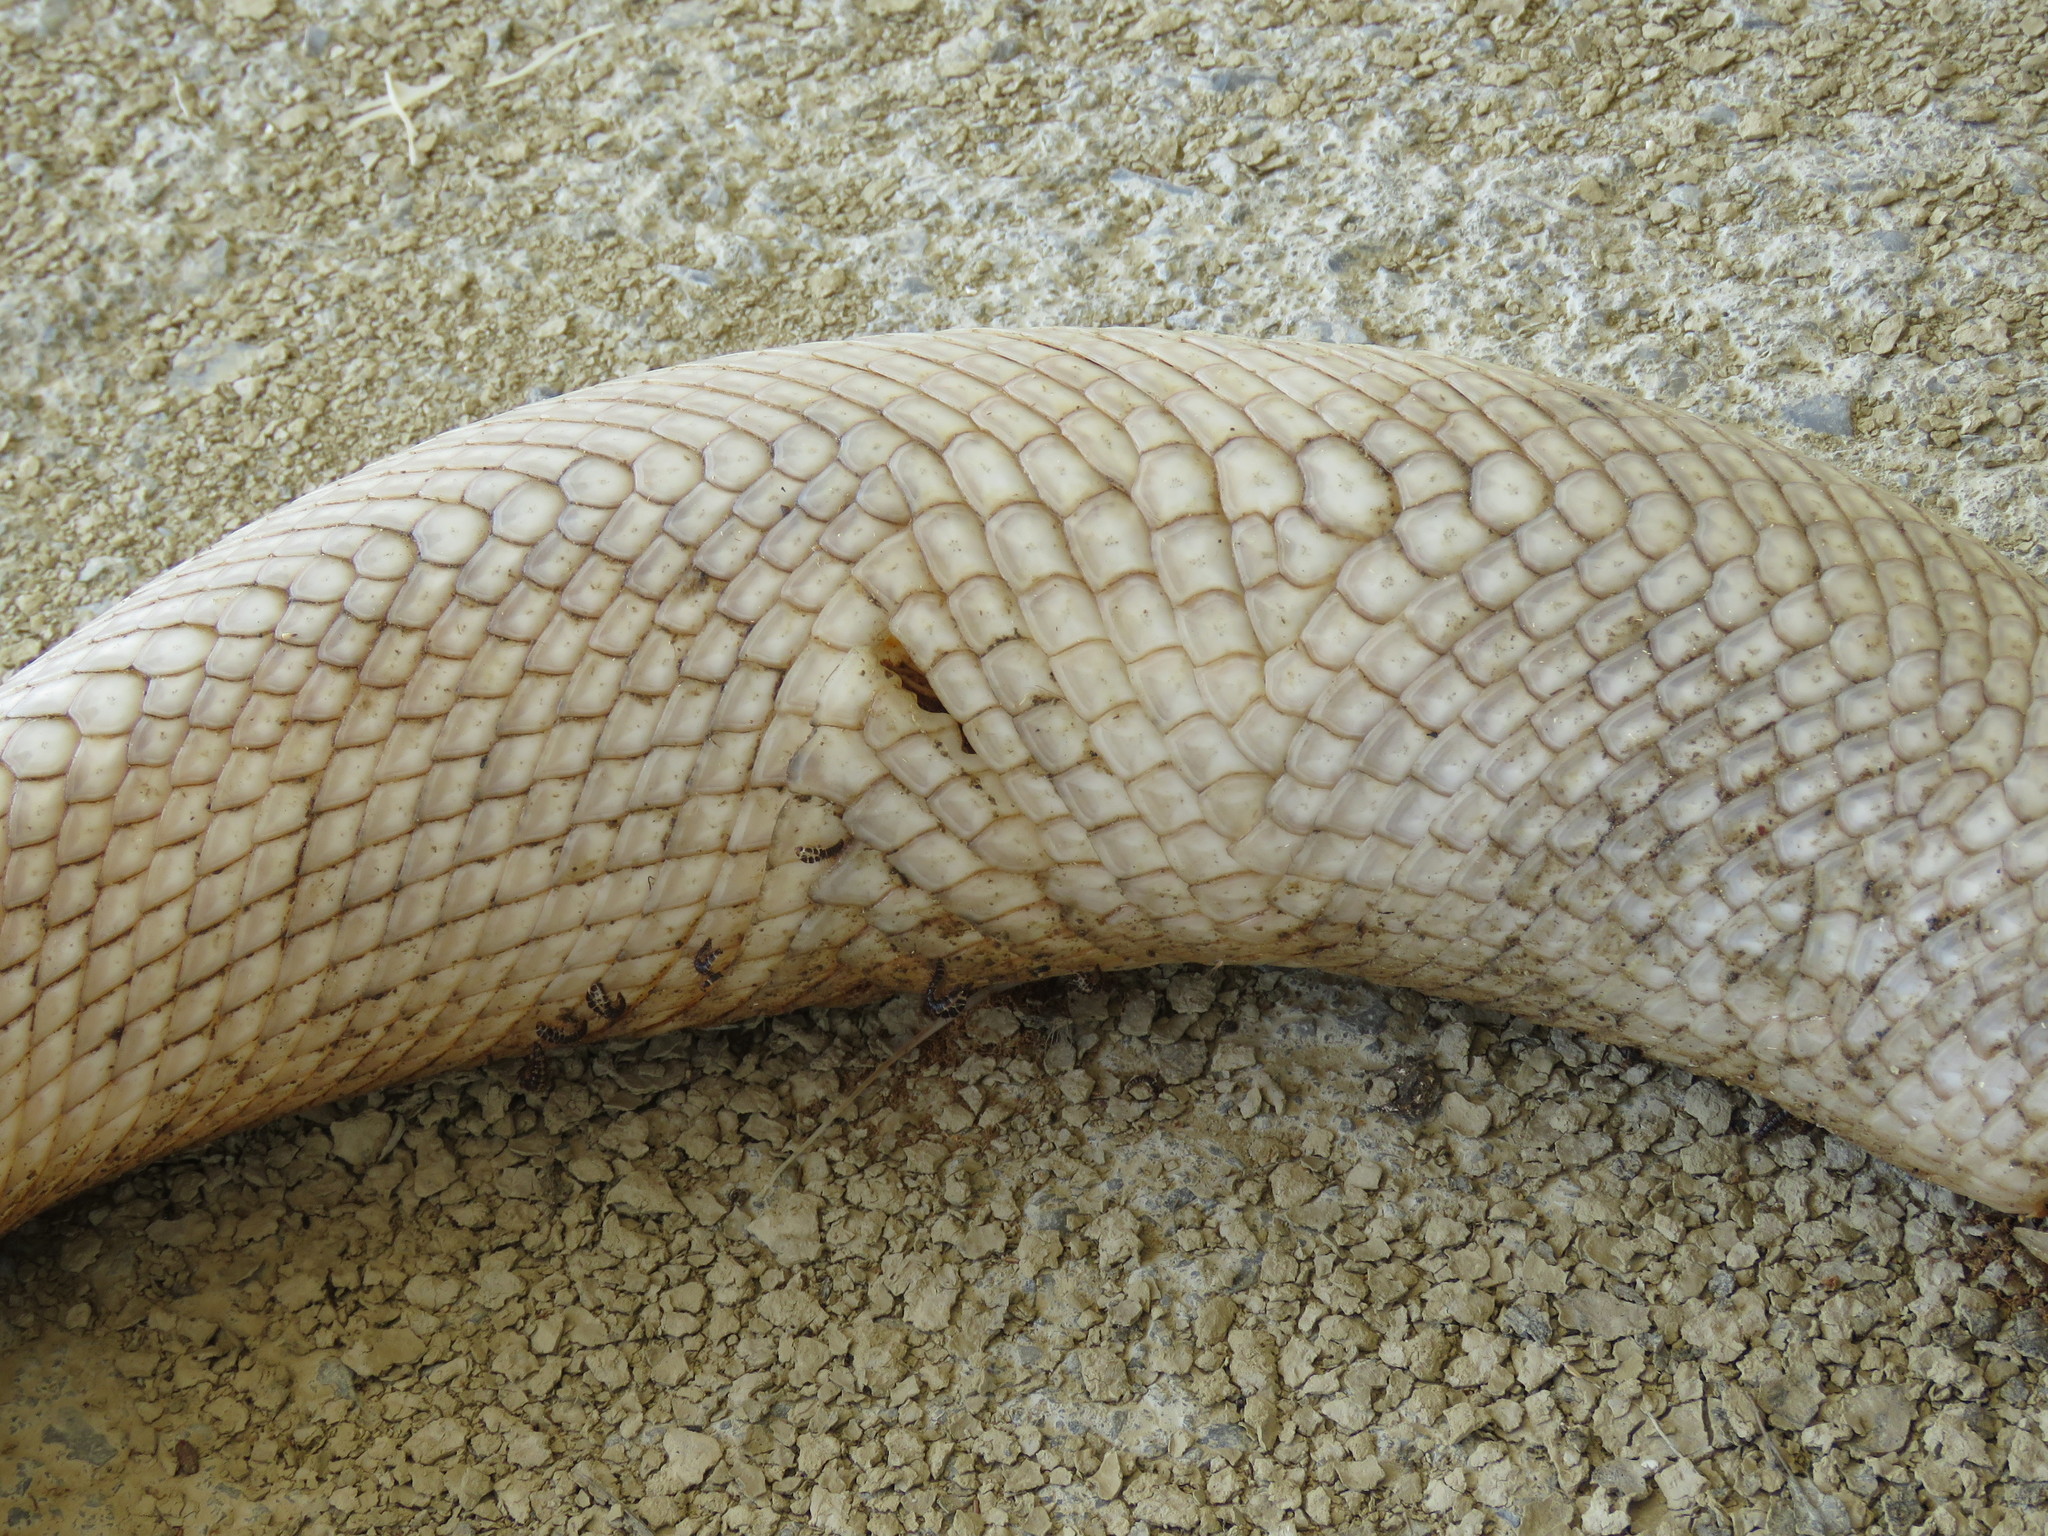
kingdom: Animalia
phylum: Chordata
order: Lepisosteiformes
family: Lepisosteidae
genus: Lepisosteus
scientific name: Lepisosteus oculatus
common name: Spotted gar
